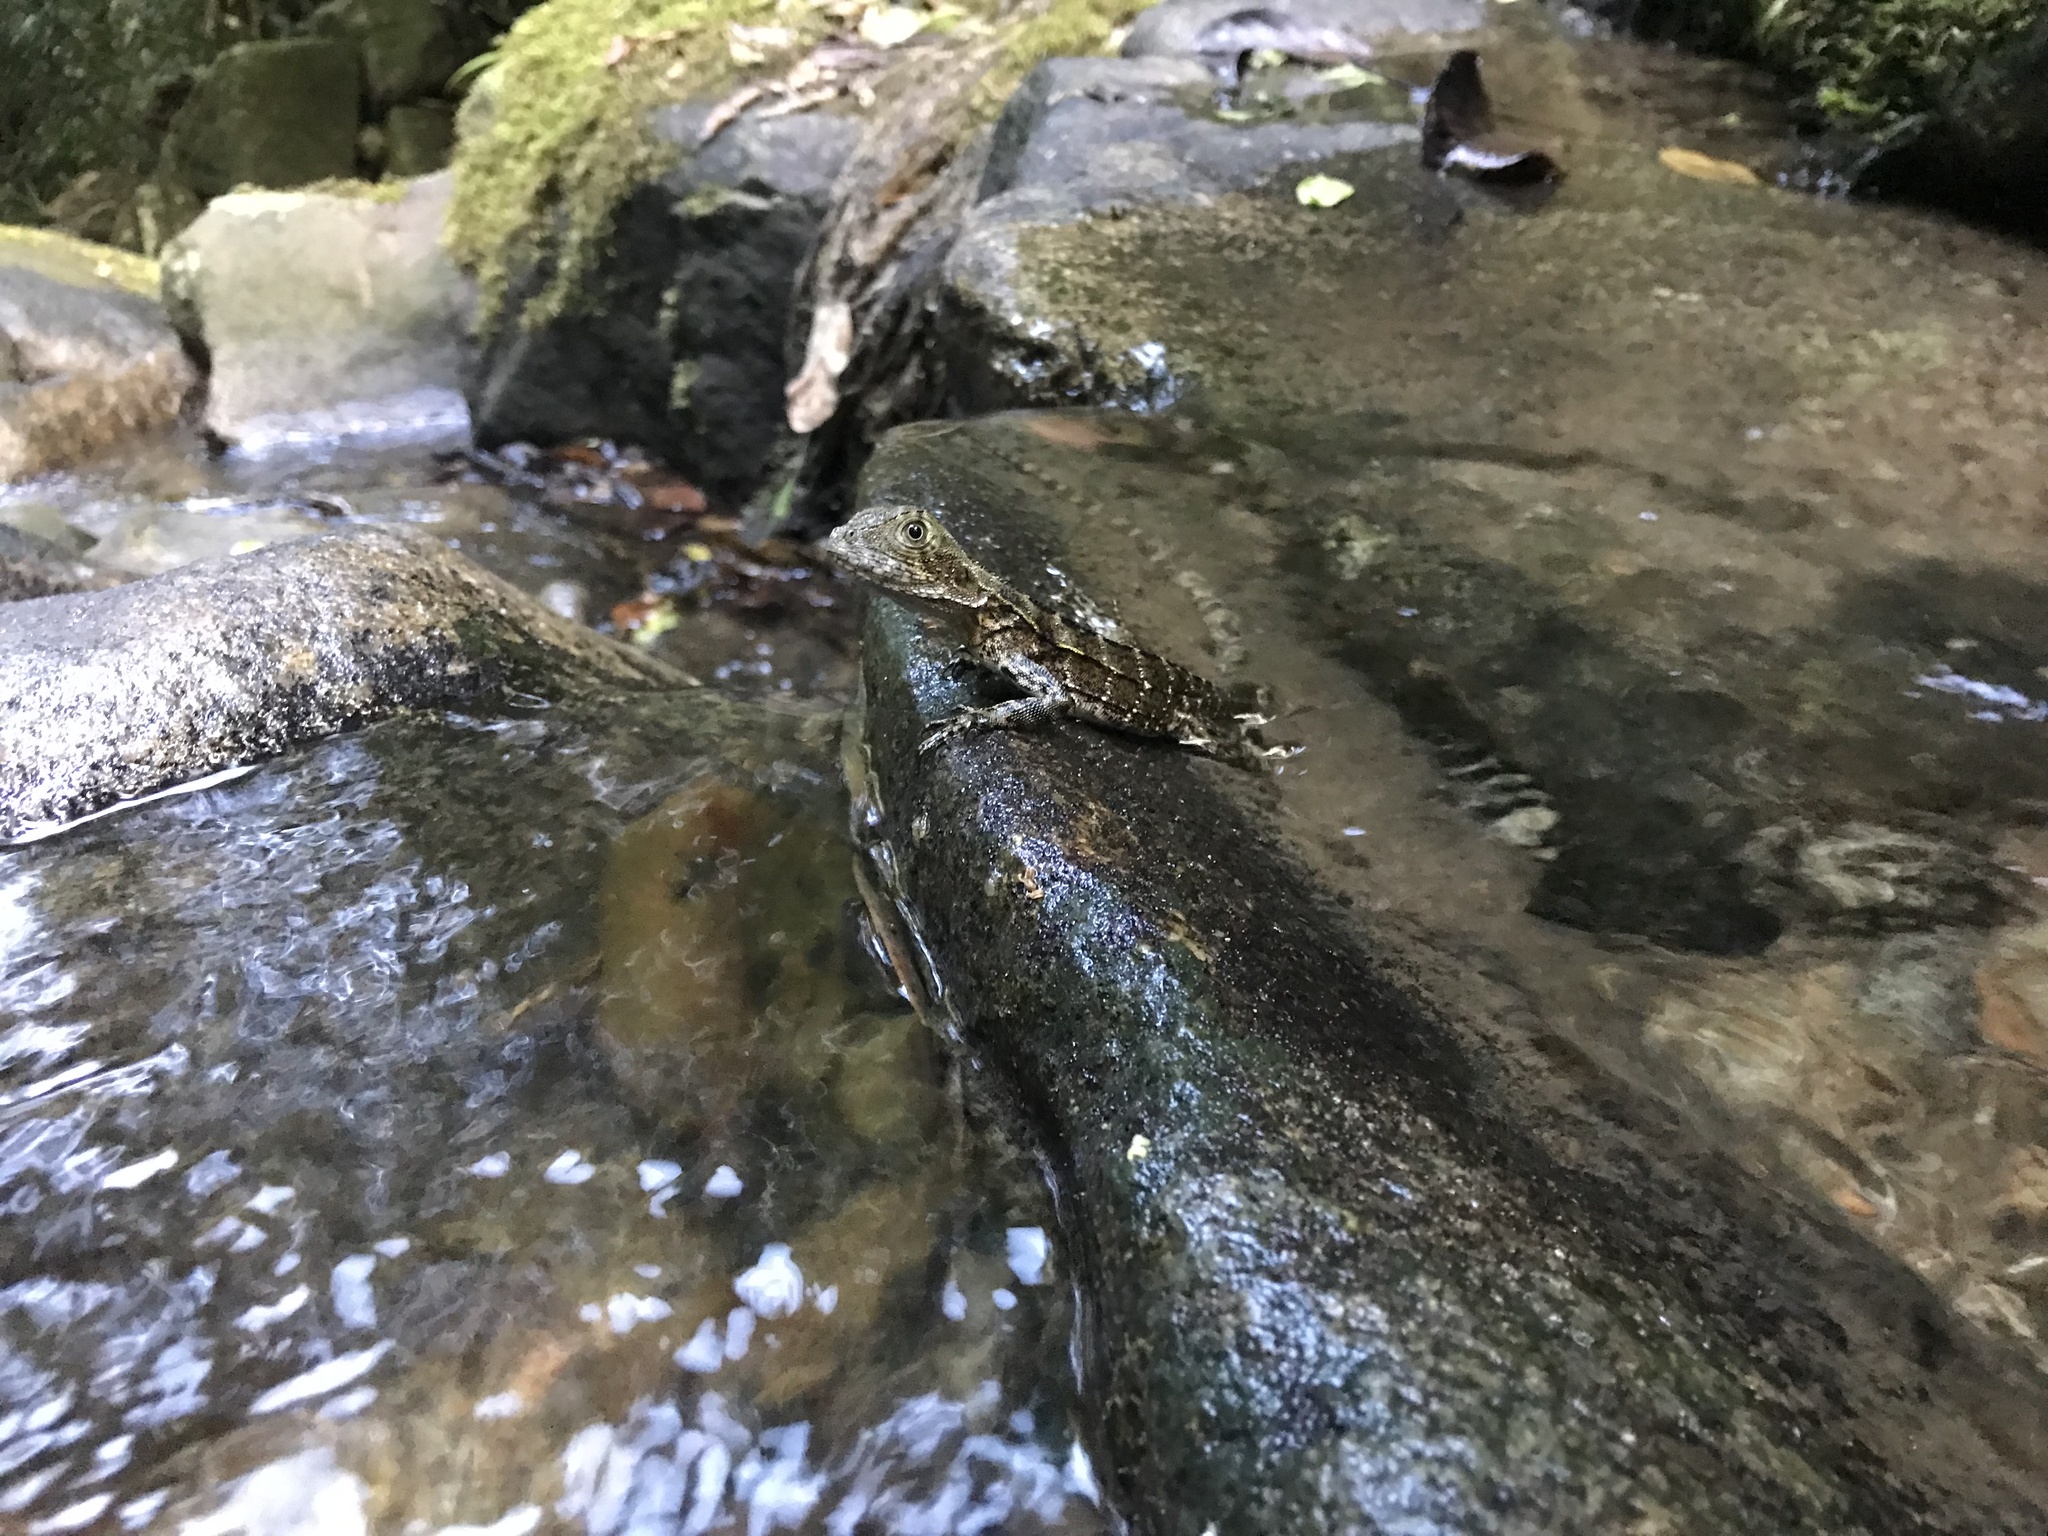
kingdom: Animalia
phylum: Chordata
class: Squamata
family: Agamidae
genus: Intellagama
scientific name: Intellagama lesueurii
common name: Eastern water dragon
